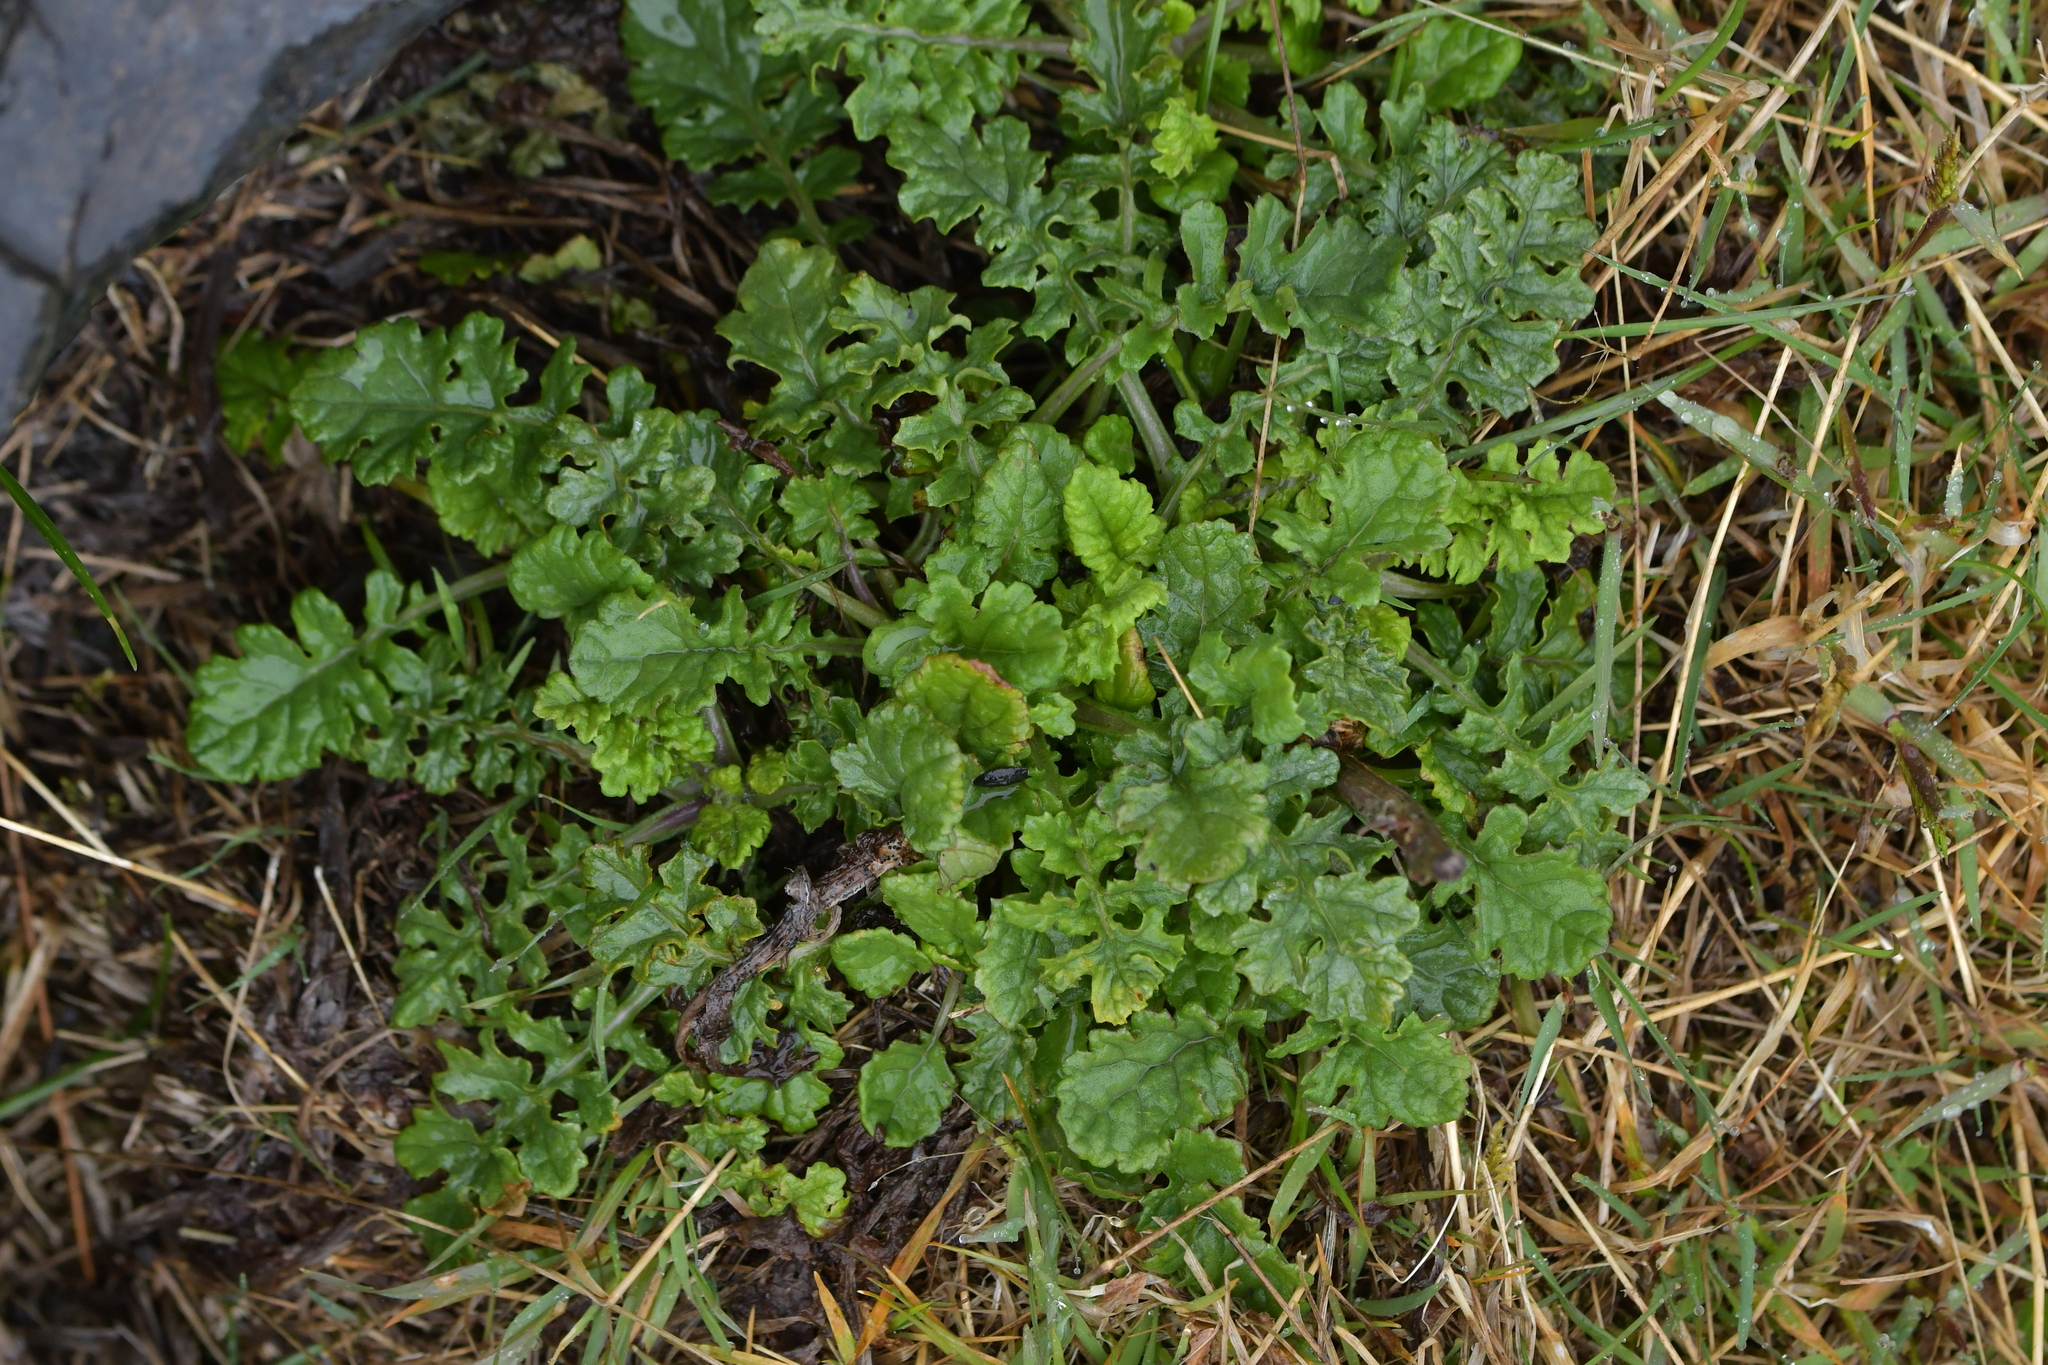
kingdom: Plantae
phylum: Tracheophyta
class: Magnoliopsida
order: Asterales
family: Asteraceae
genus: Jacobaea
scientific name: Jacobaea vulgaris
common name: Stinking willie
